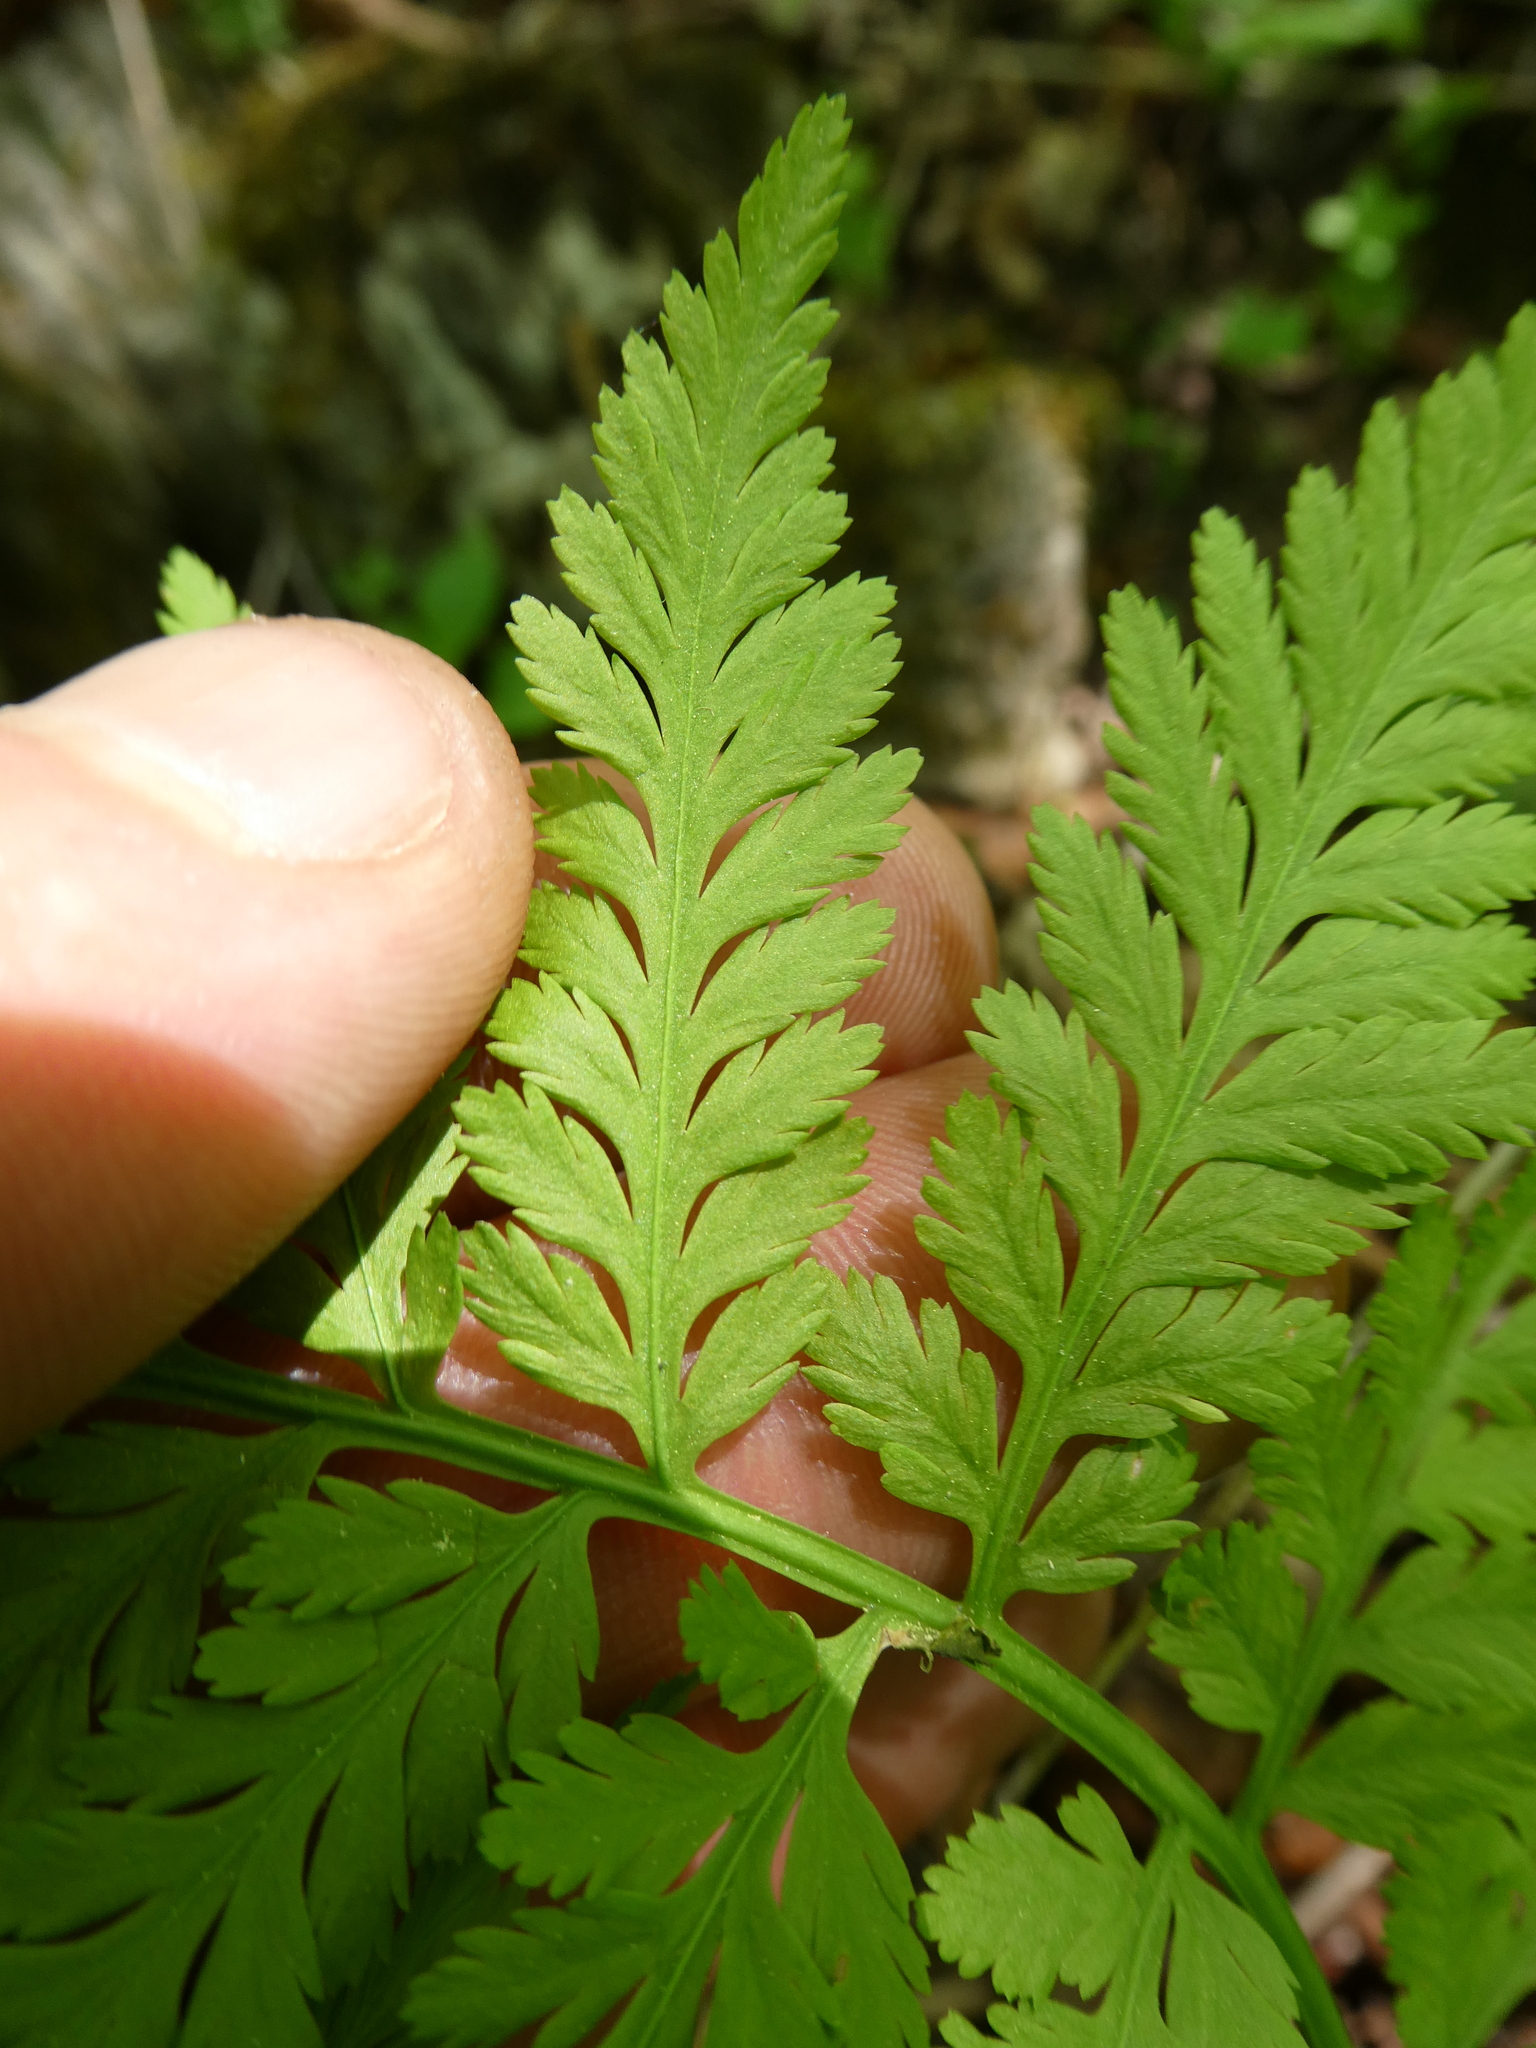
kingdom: Plantae
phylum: Tracheophyta
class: Polypodiopsida
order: Ophioglossales
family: Ophioglossaceae
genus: Botrypus
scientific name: Botrypus virginianus
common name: Common grapefern
